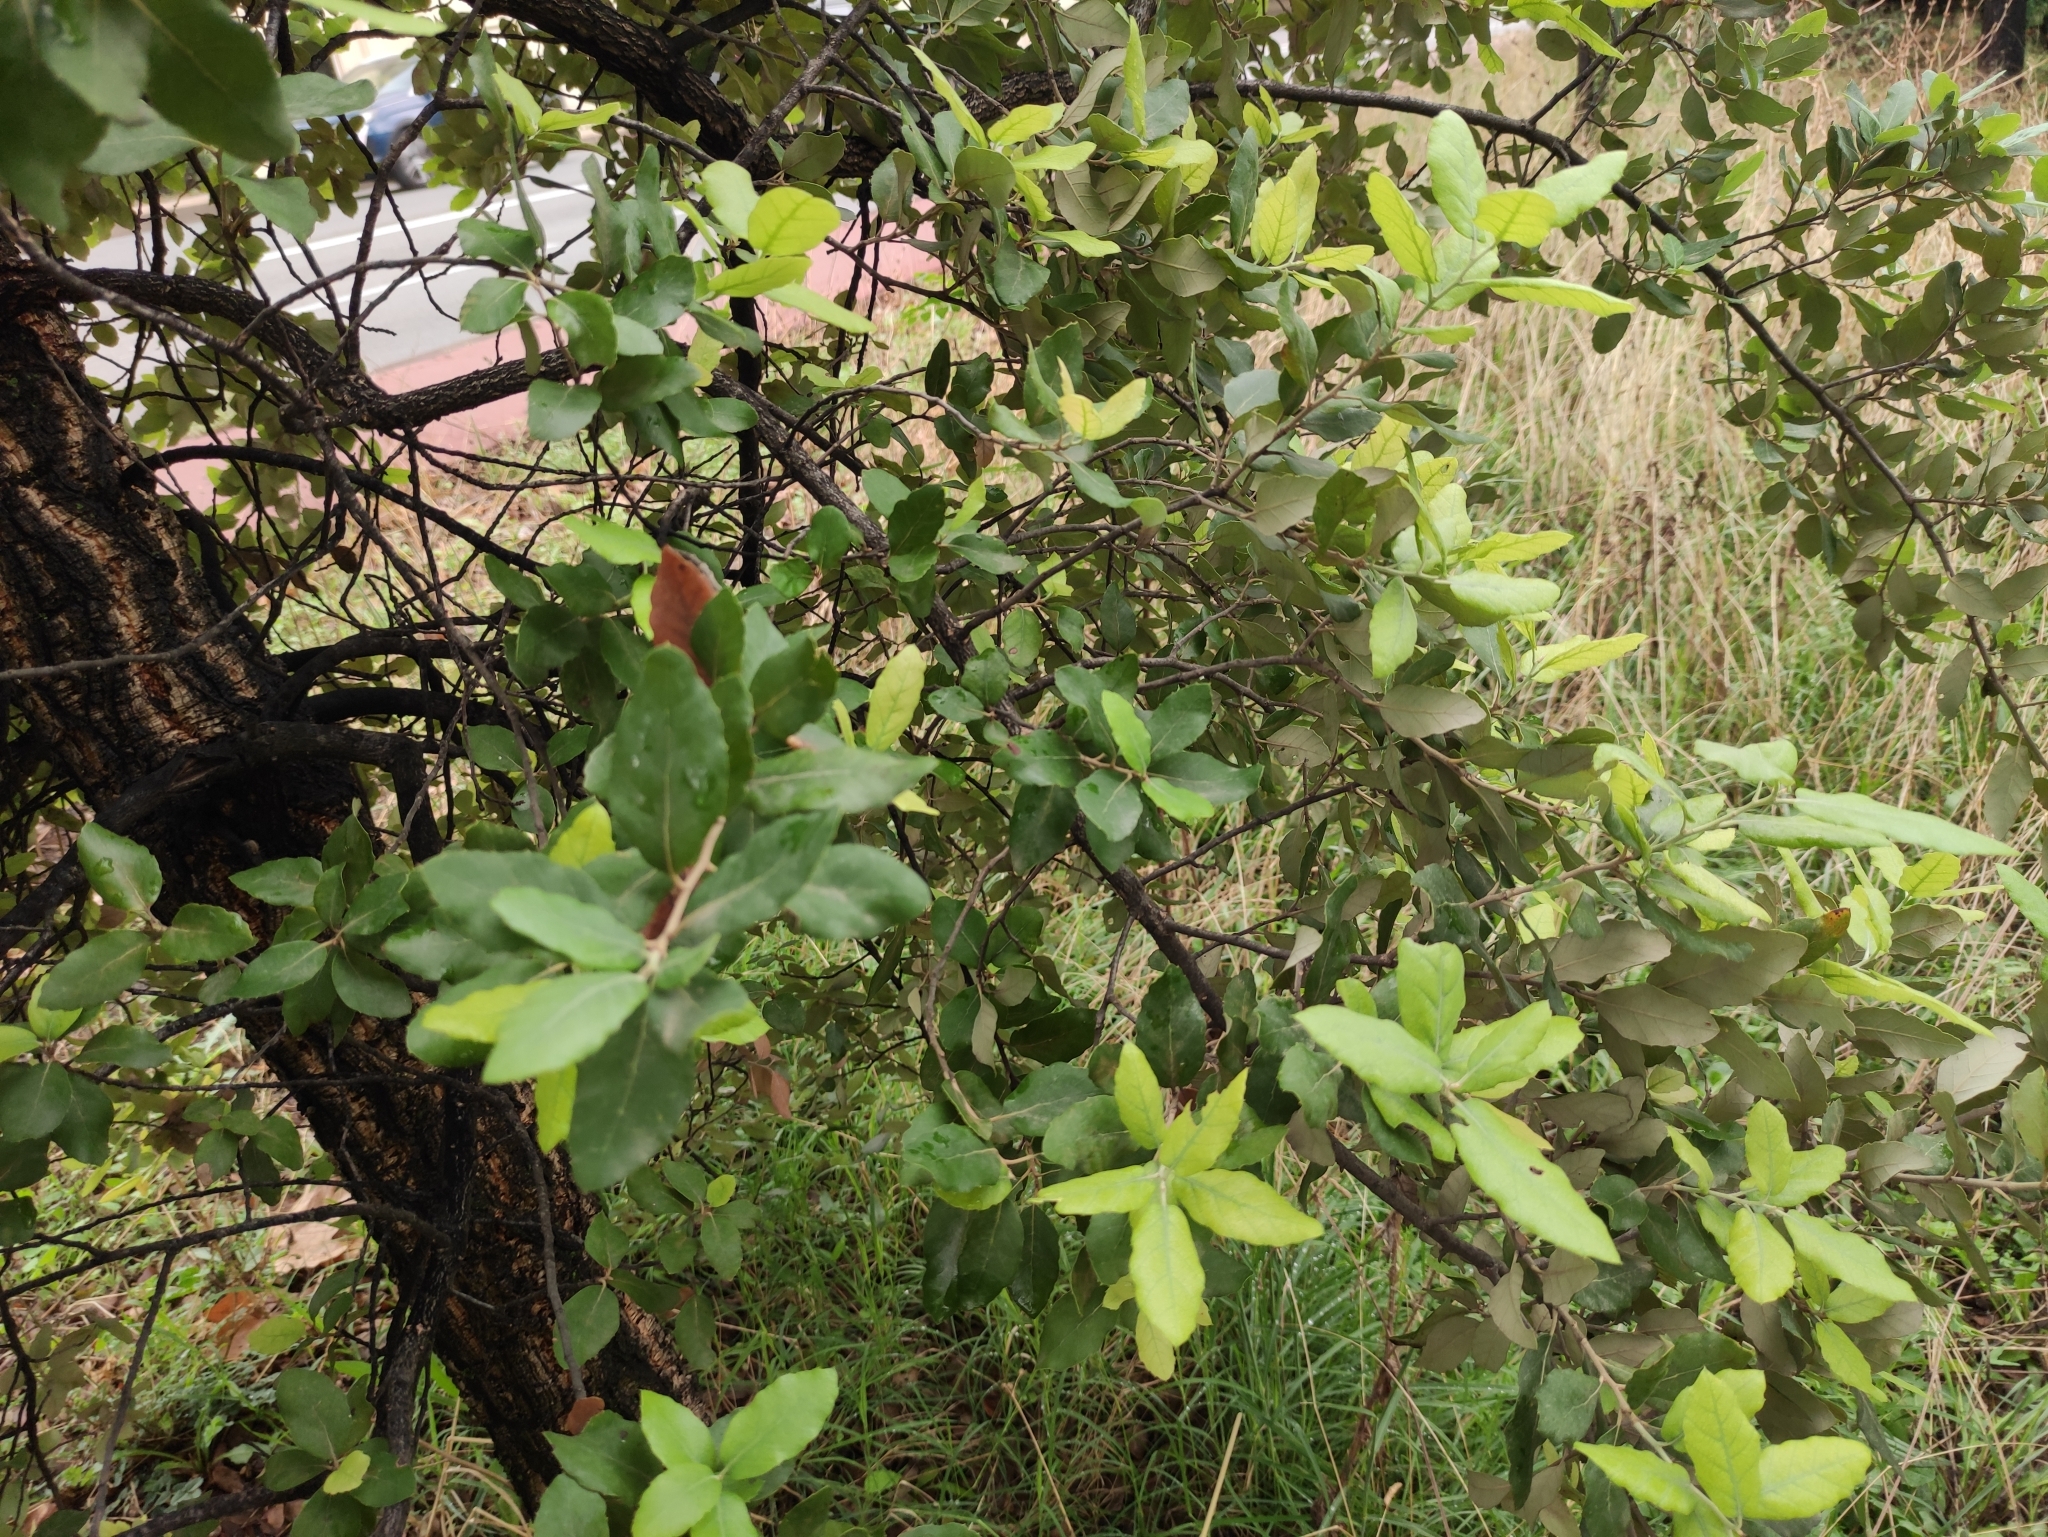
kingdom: Plantae
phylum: Tracheophyta
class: Magnoliopsida
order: Fagales
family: Fagaceae
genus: Quercus
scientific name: Quercus suber
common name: Cork oak
